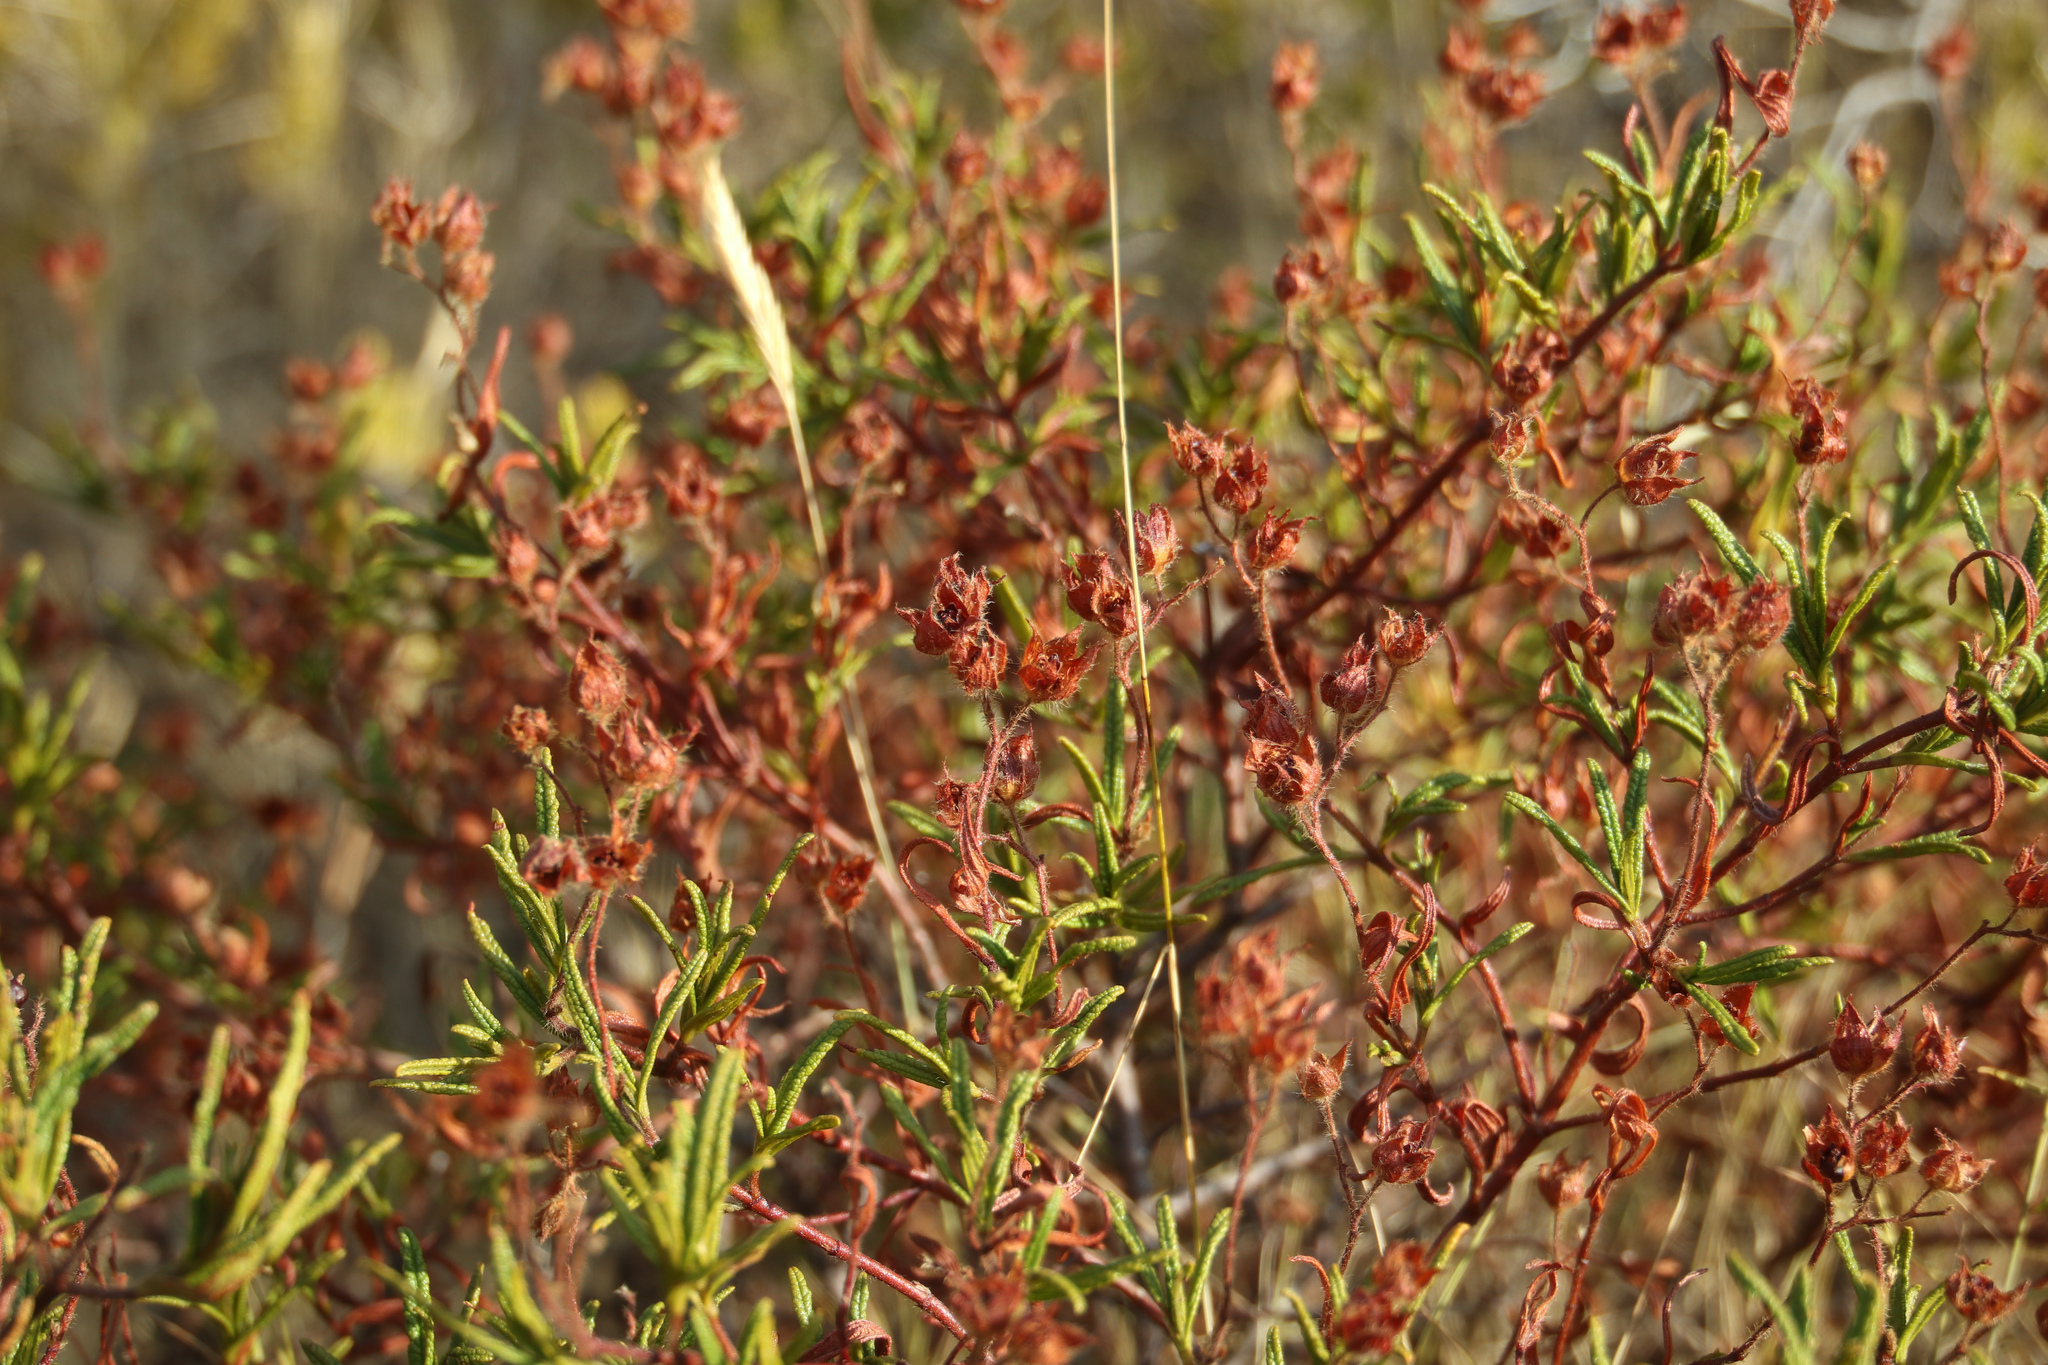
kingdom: Plantae
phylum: Tracheophyta
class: Magnoliopsida
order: Malvales
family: Cistaceae
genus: Cistus
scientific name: Cistus monspeliensis
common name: Montpelier cistus
